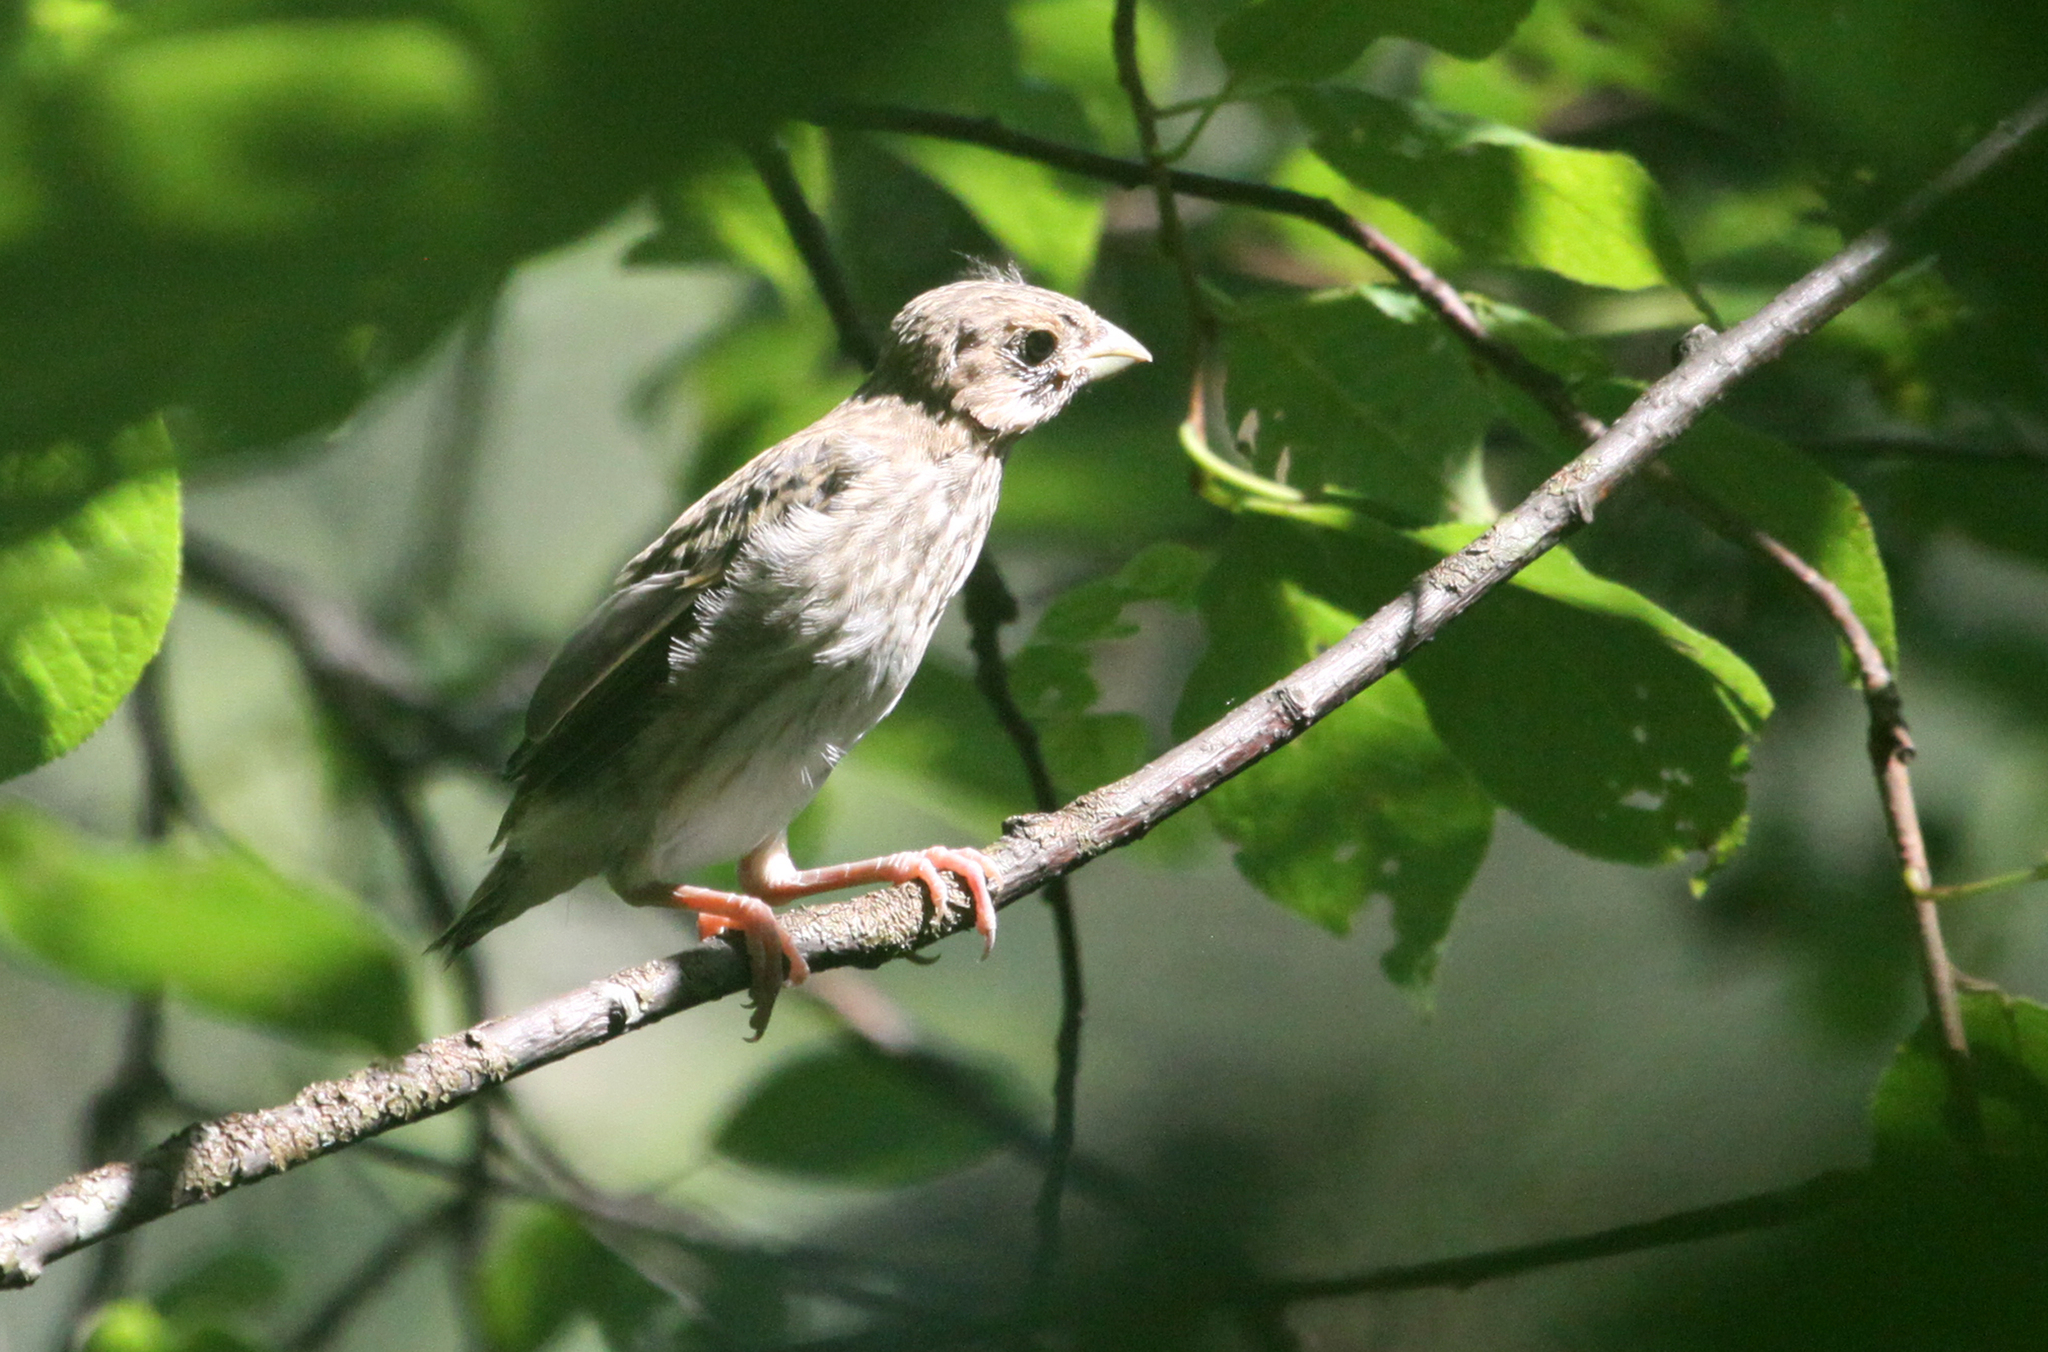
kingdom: Animalia
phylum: Chordata
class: Aves
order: Passeriformes
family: Fringillidae
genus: Carpodacus
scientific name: Carpodacus erythrinus
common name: Common rosefinch
